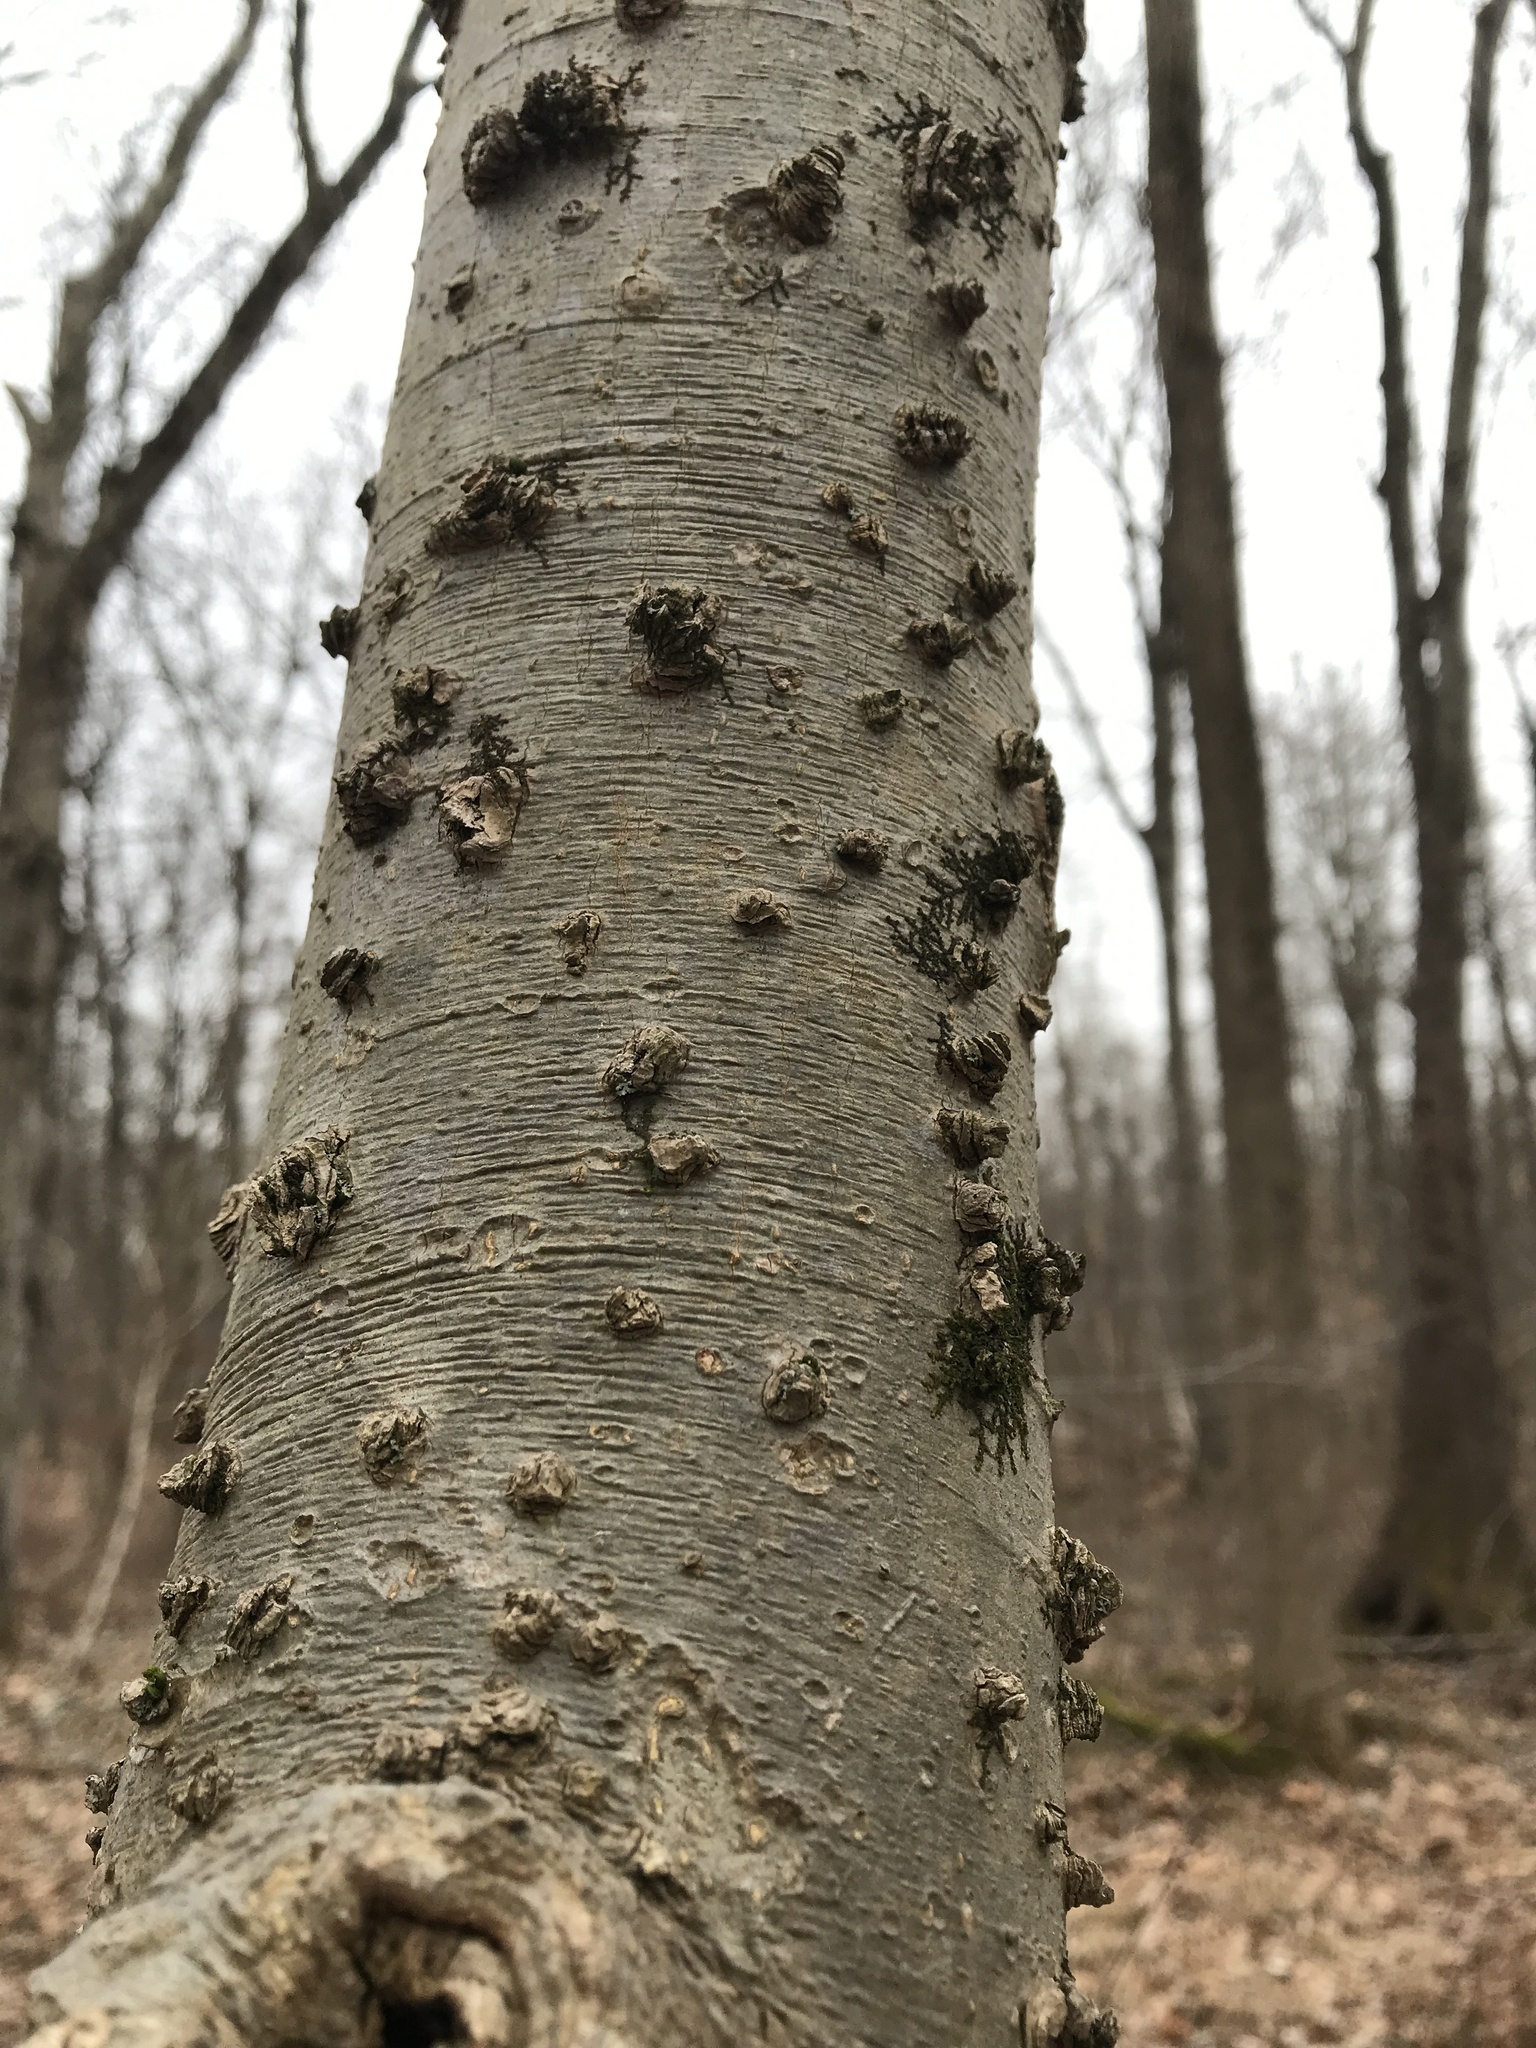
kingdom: Plantae
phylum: Tracheophyta
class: Magnoliopsida
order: Rosales
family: Cannabaceae
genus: Celtis
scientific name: Celtis occidentalis
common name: Common hackberry
